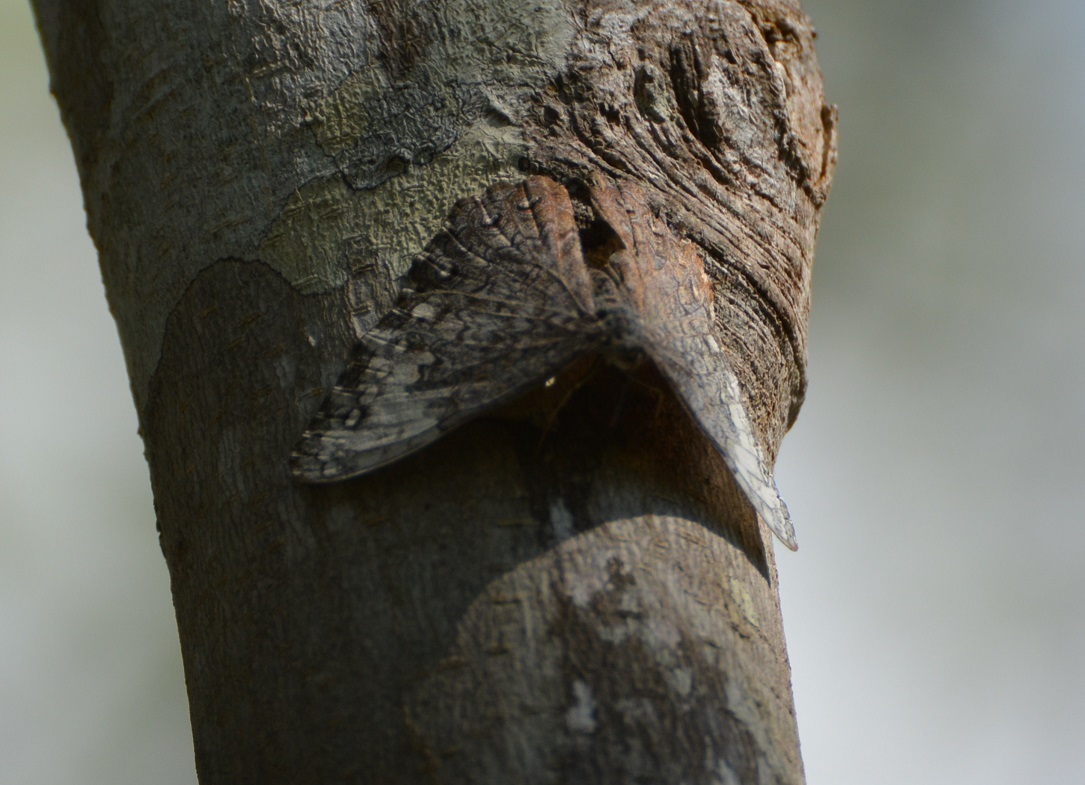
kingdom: Animalia
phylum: Arthropoda
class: Insecta
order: Lepidoptera
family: Nymphalidae
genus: Hamadryas
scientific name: Hamadryas glauconome
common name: Glaucous cracker
